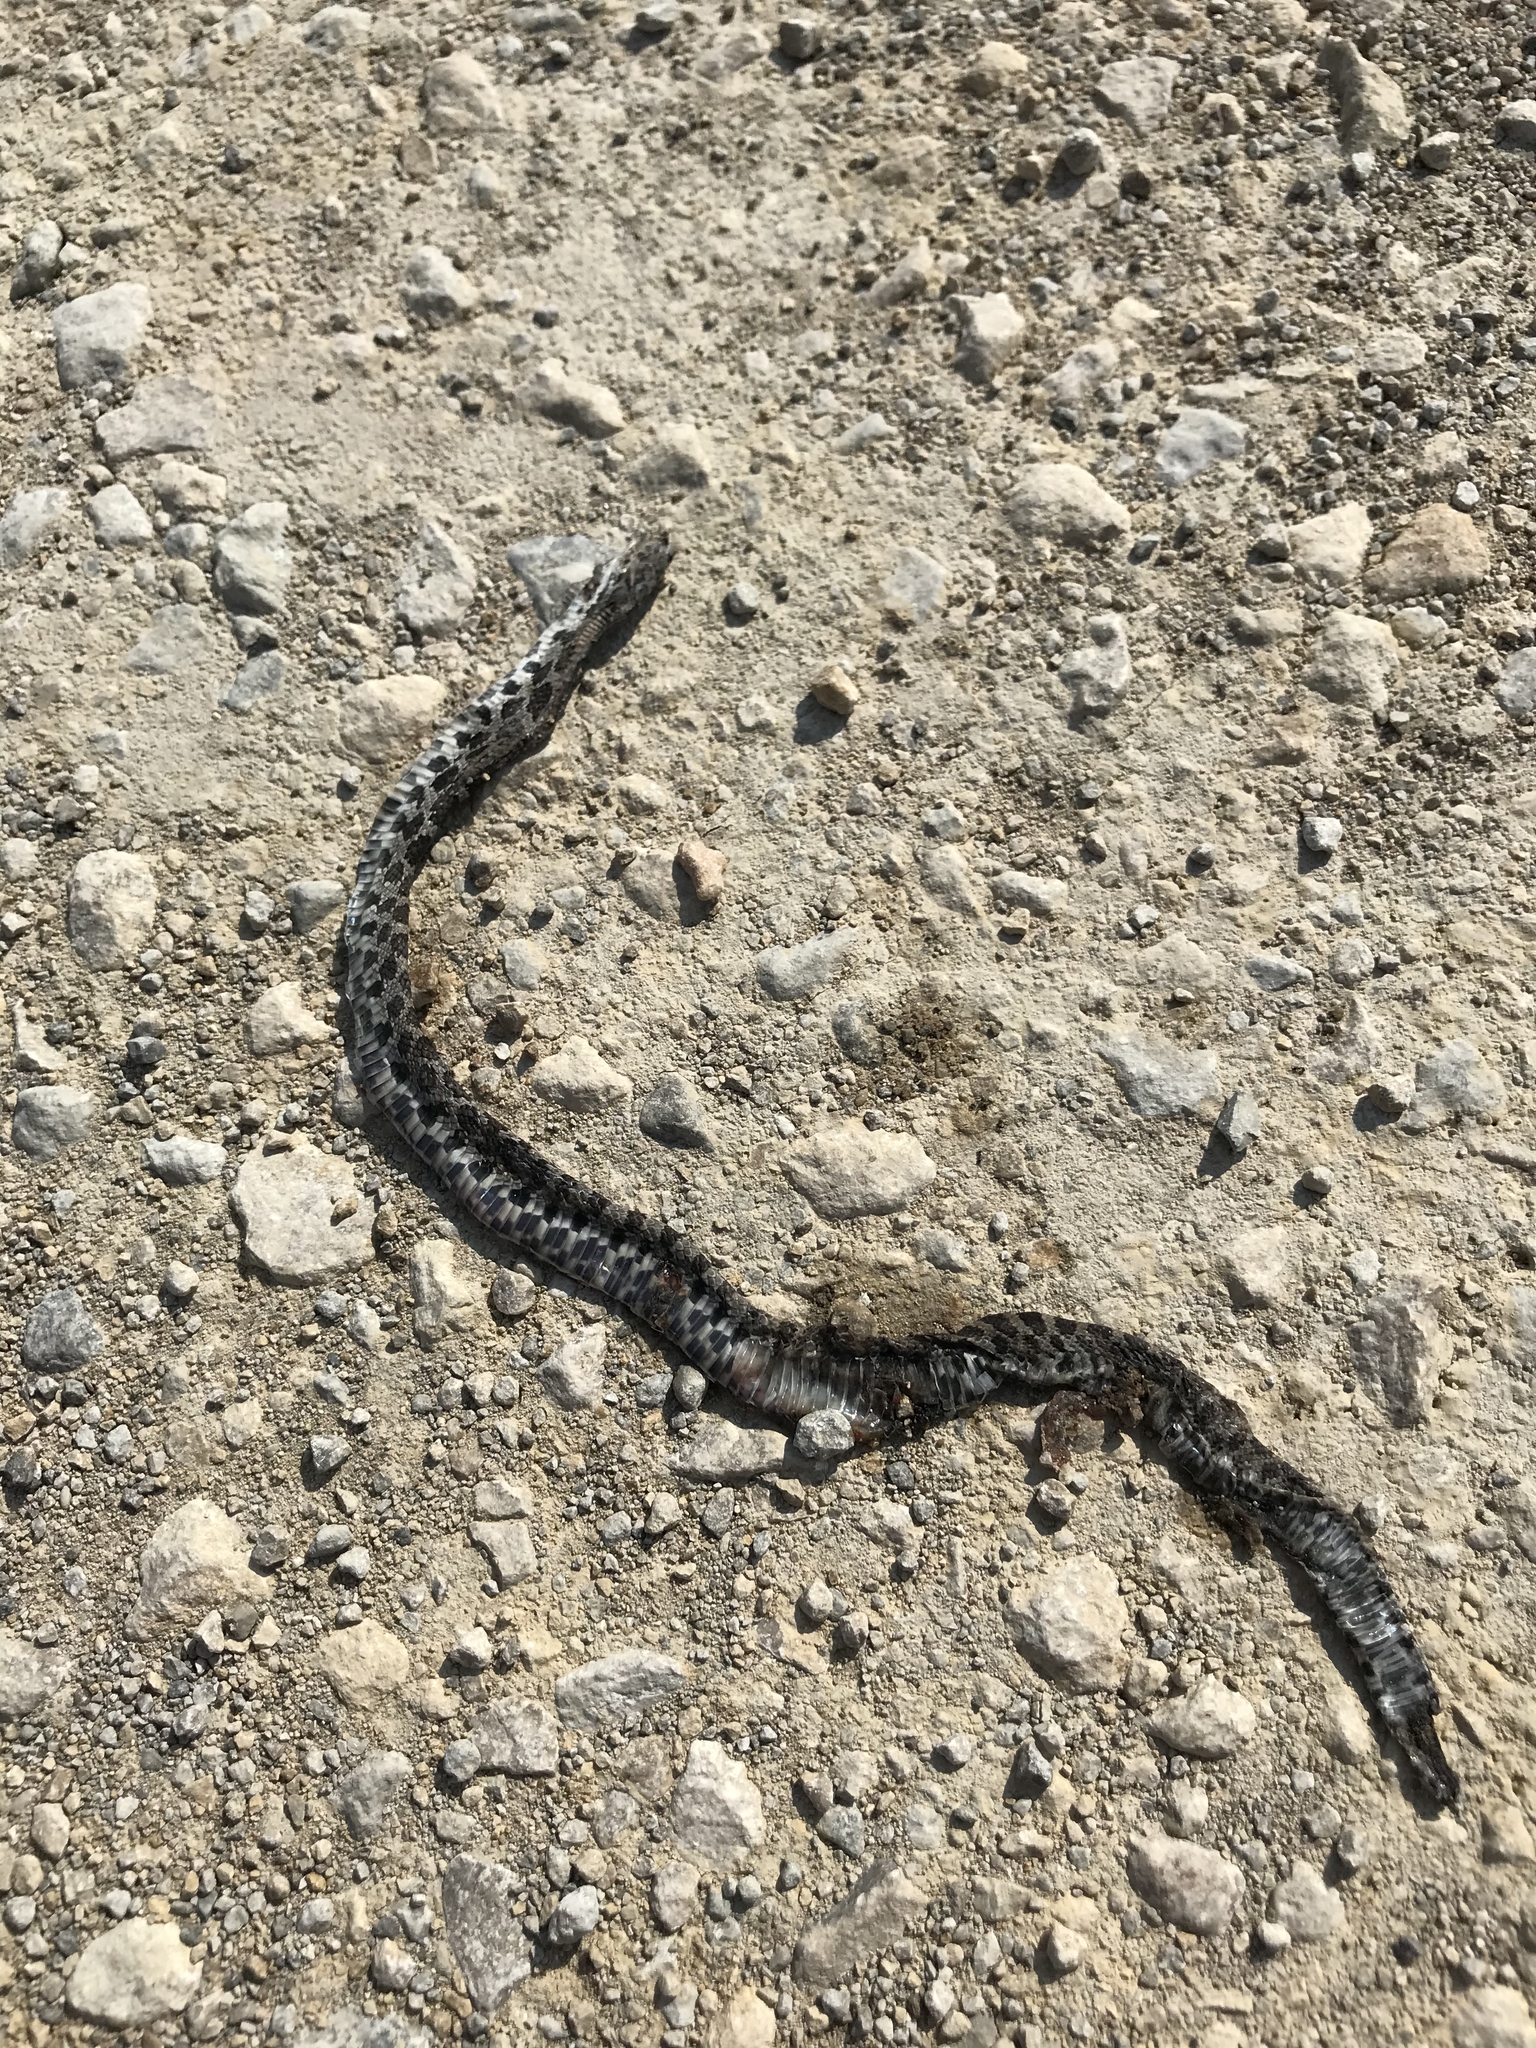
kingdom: Animalia
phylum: Chordata
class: Squamata
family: Colubridae
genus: Lampropeltis
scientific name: Lampropeltis calligaster
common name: Prairie kingsnake
